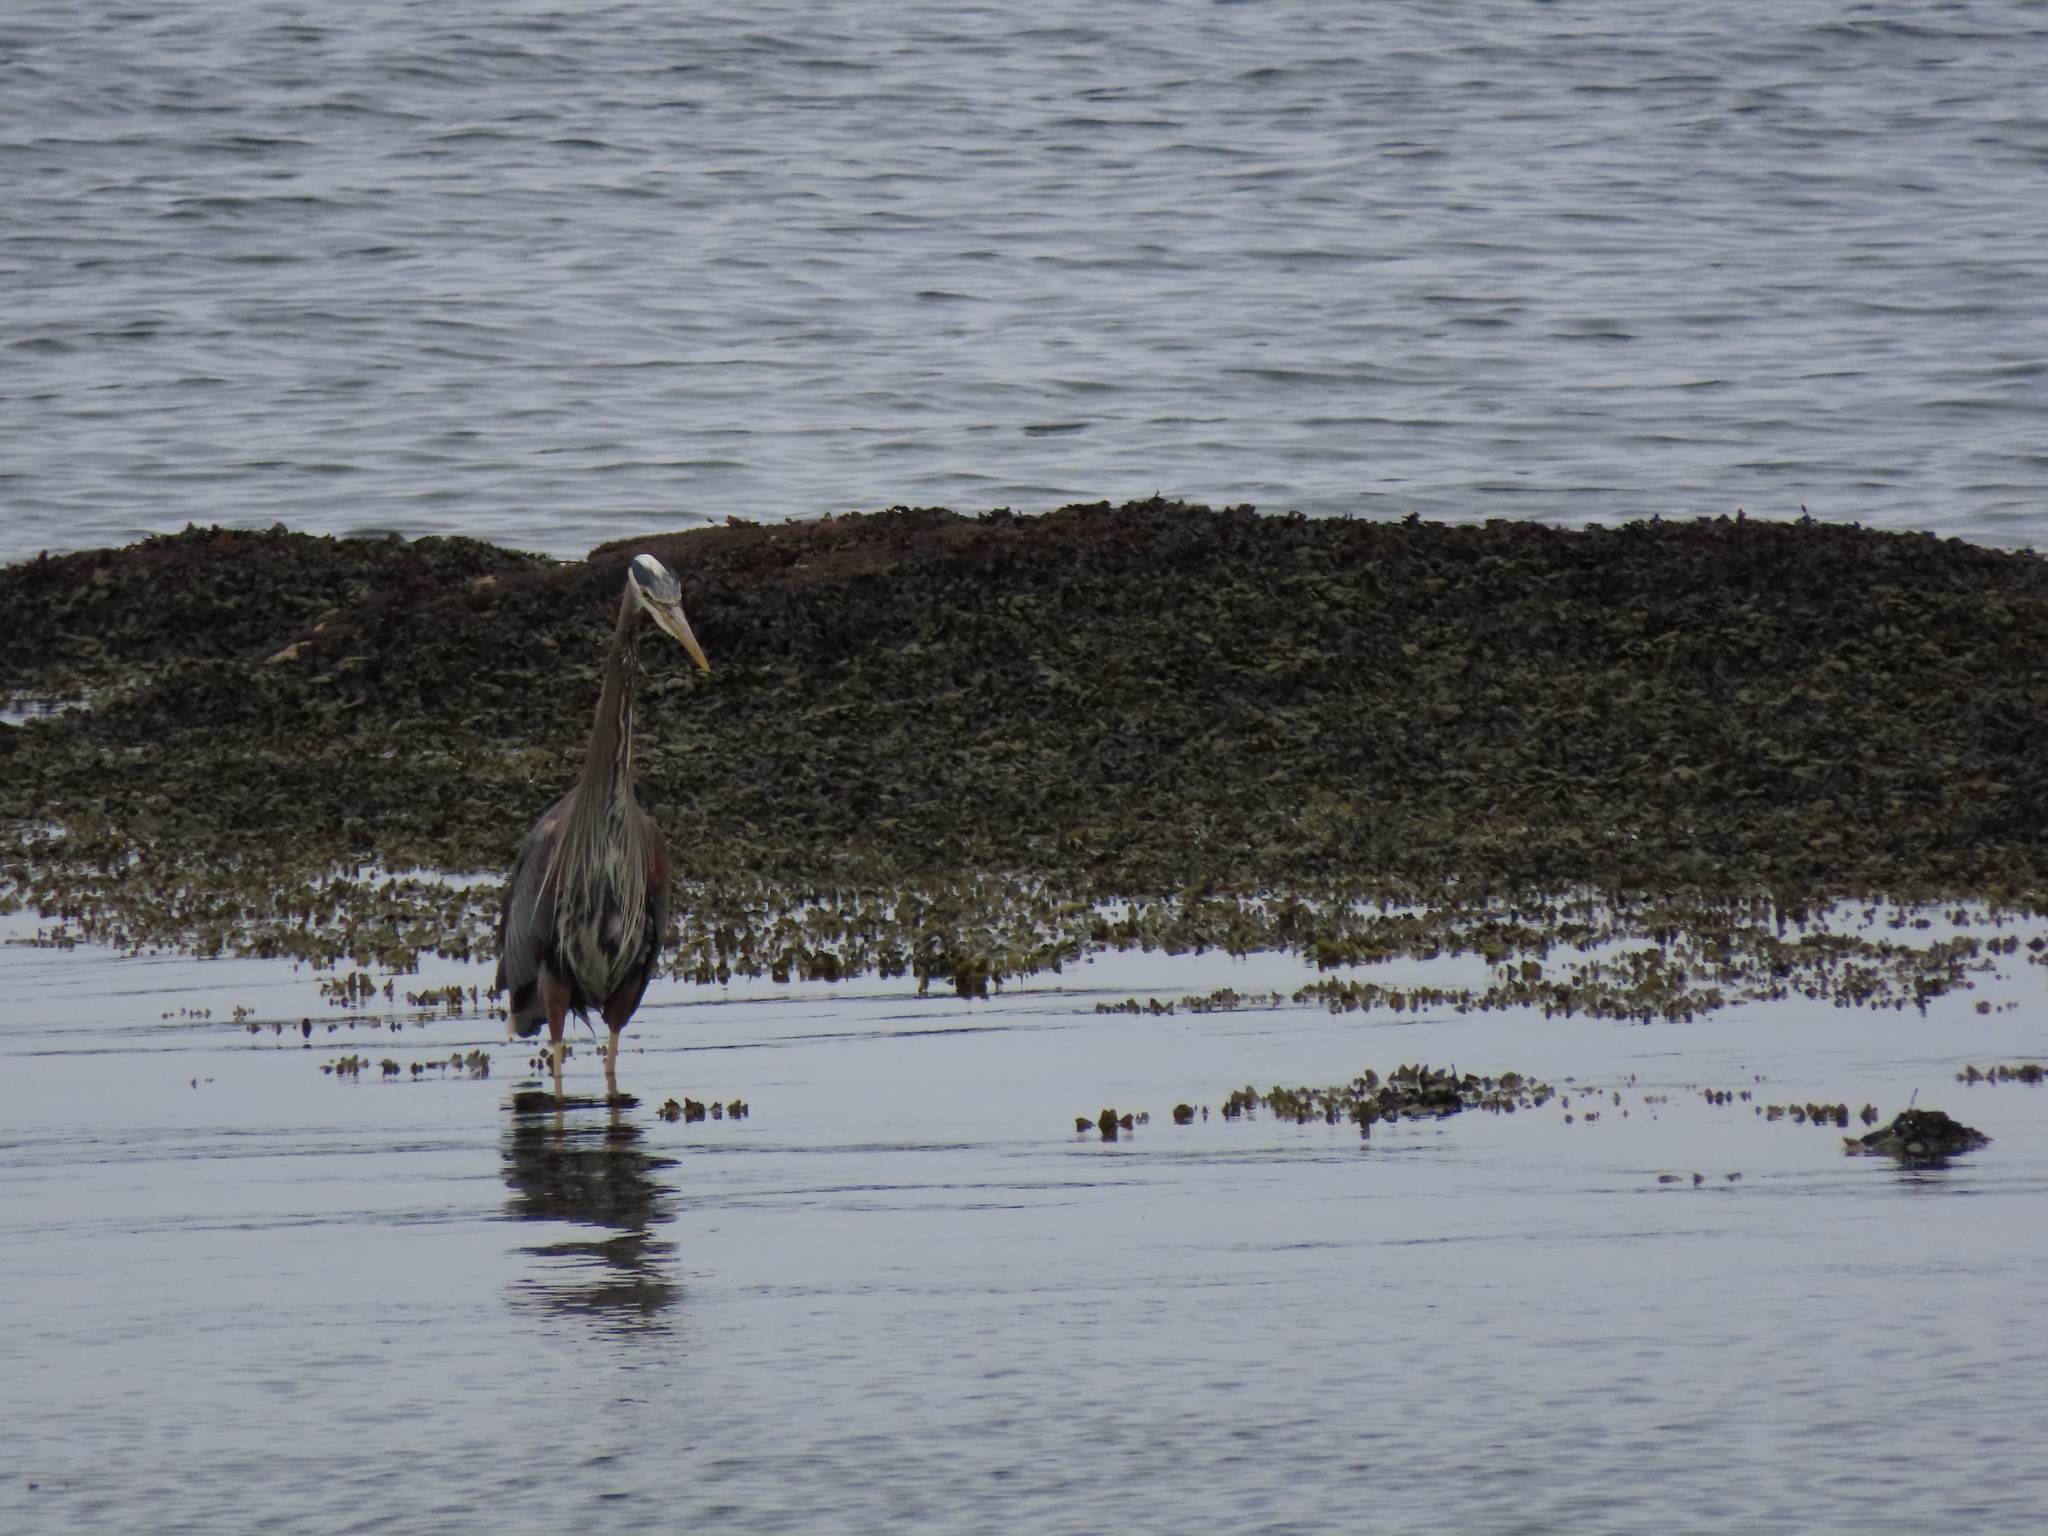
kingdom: Animalia
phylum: Chordata
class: Aves
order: Pelecaniformes
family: Ardeidae
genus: Ardea
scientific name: Ardea herodias
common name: Great blue heron
